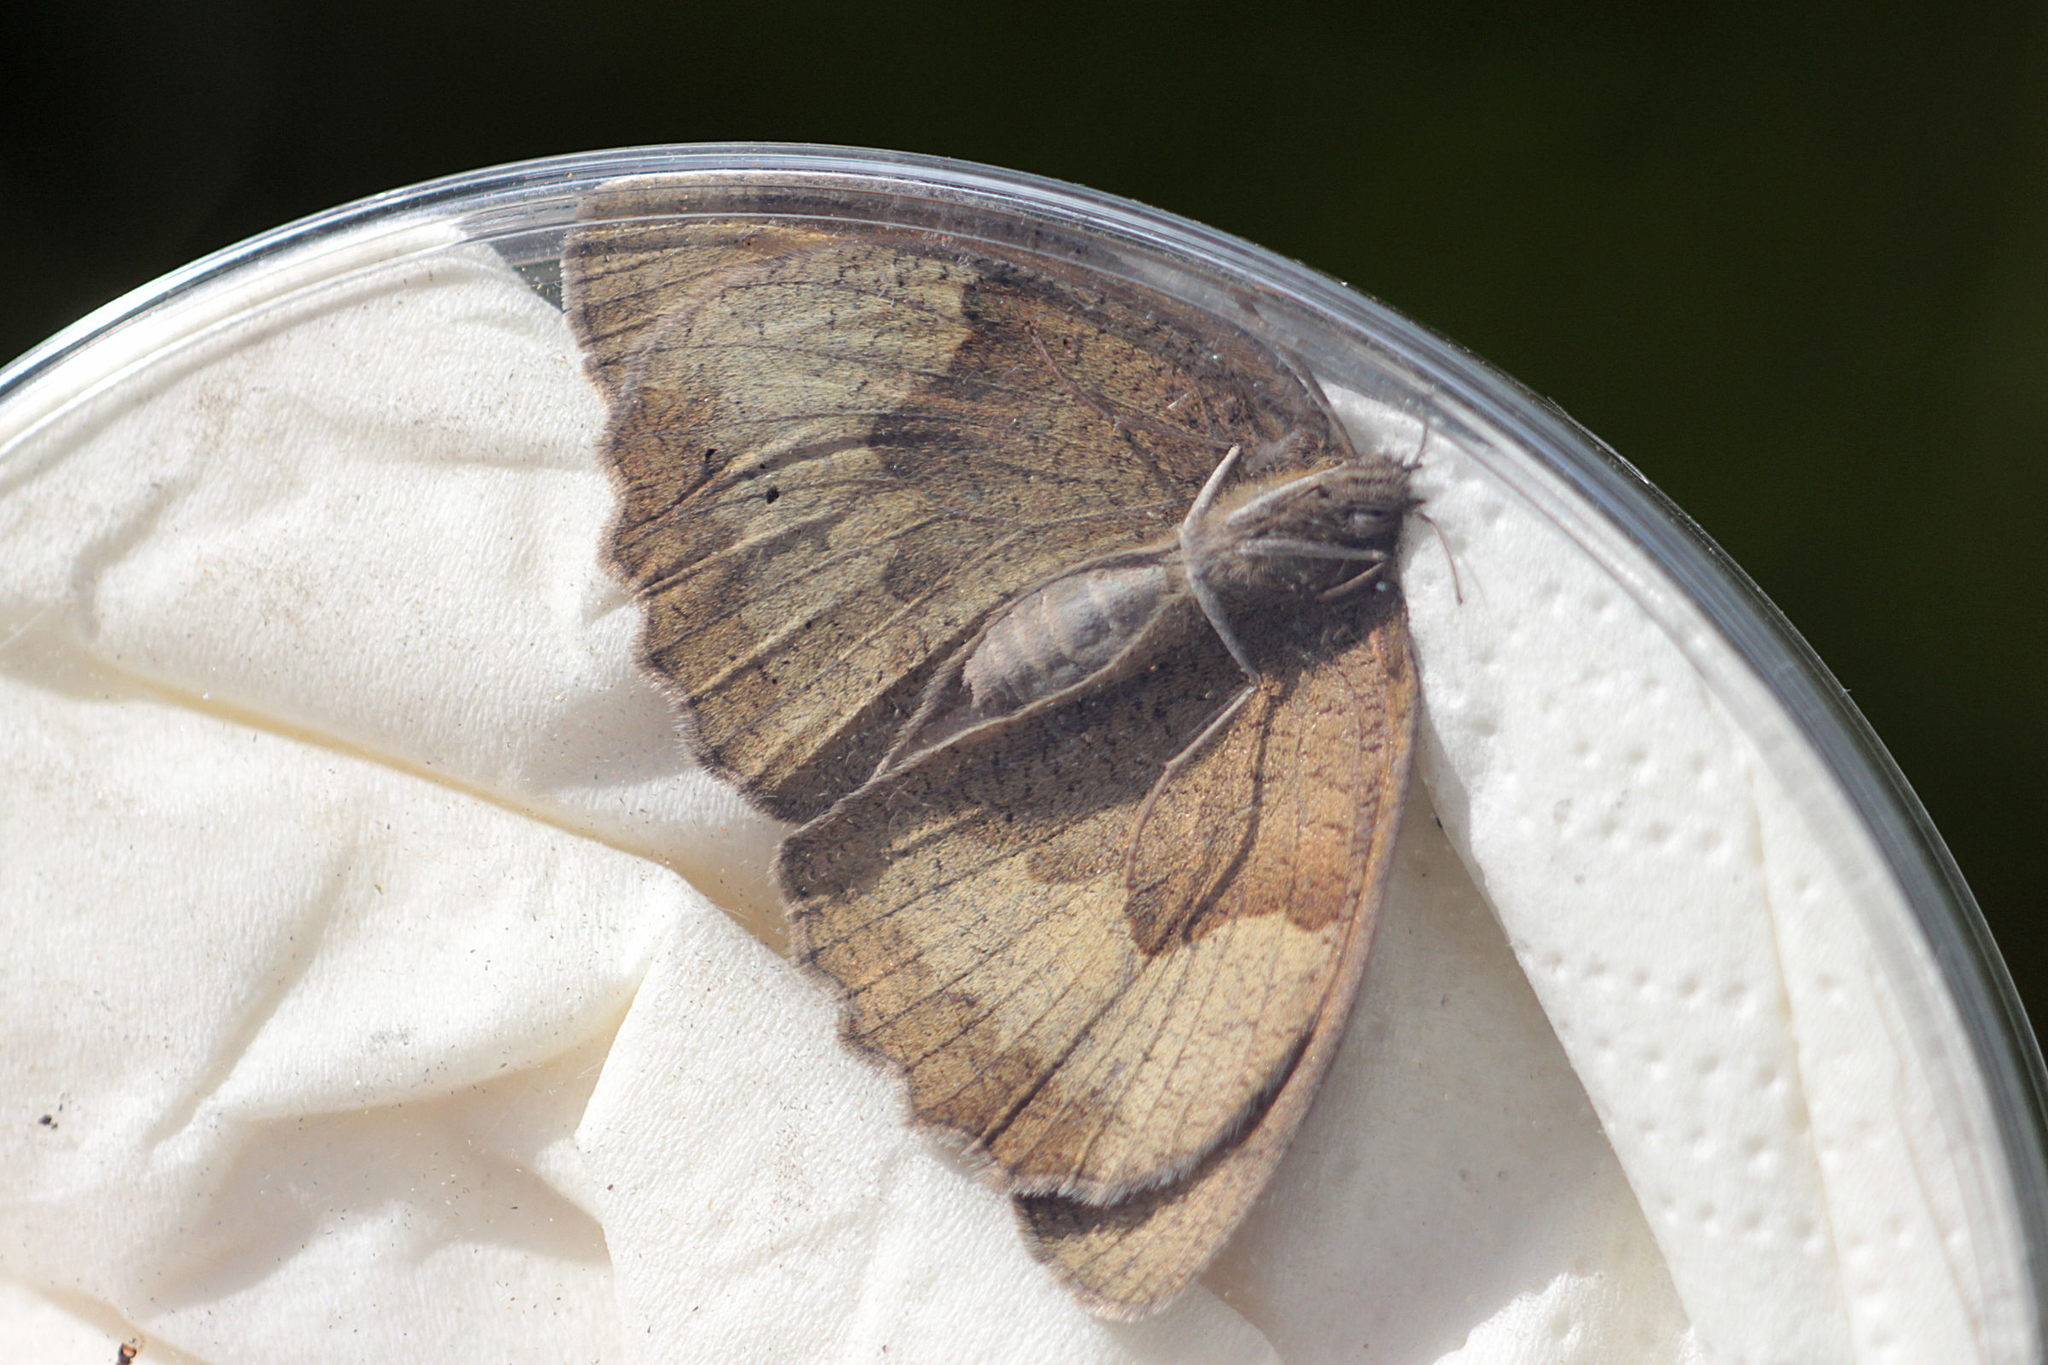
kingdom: Animalia
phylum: Arthropoda
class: Insecta
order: Lepidoptera
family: Nymphalidae
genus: Maniola
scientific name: Maniola jurtina
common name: Meadow brown
